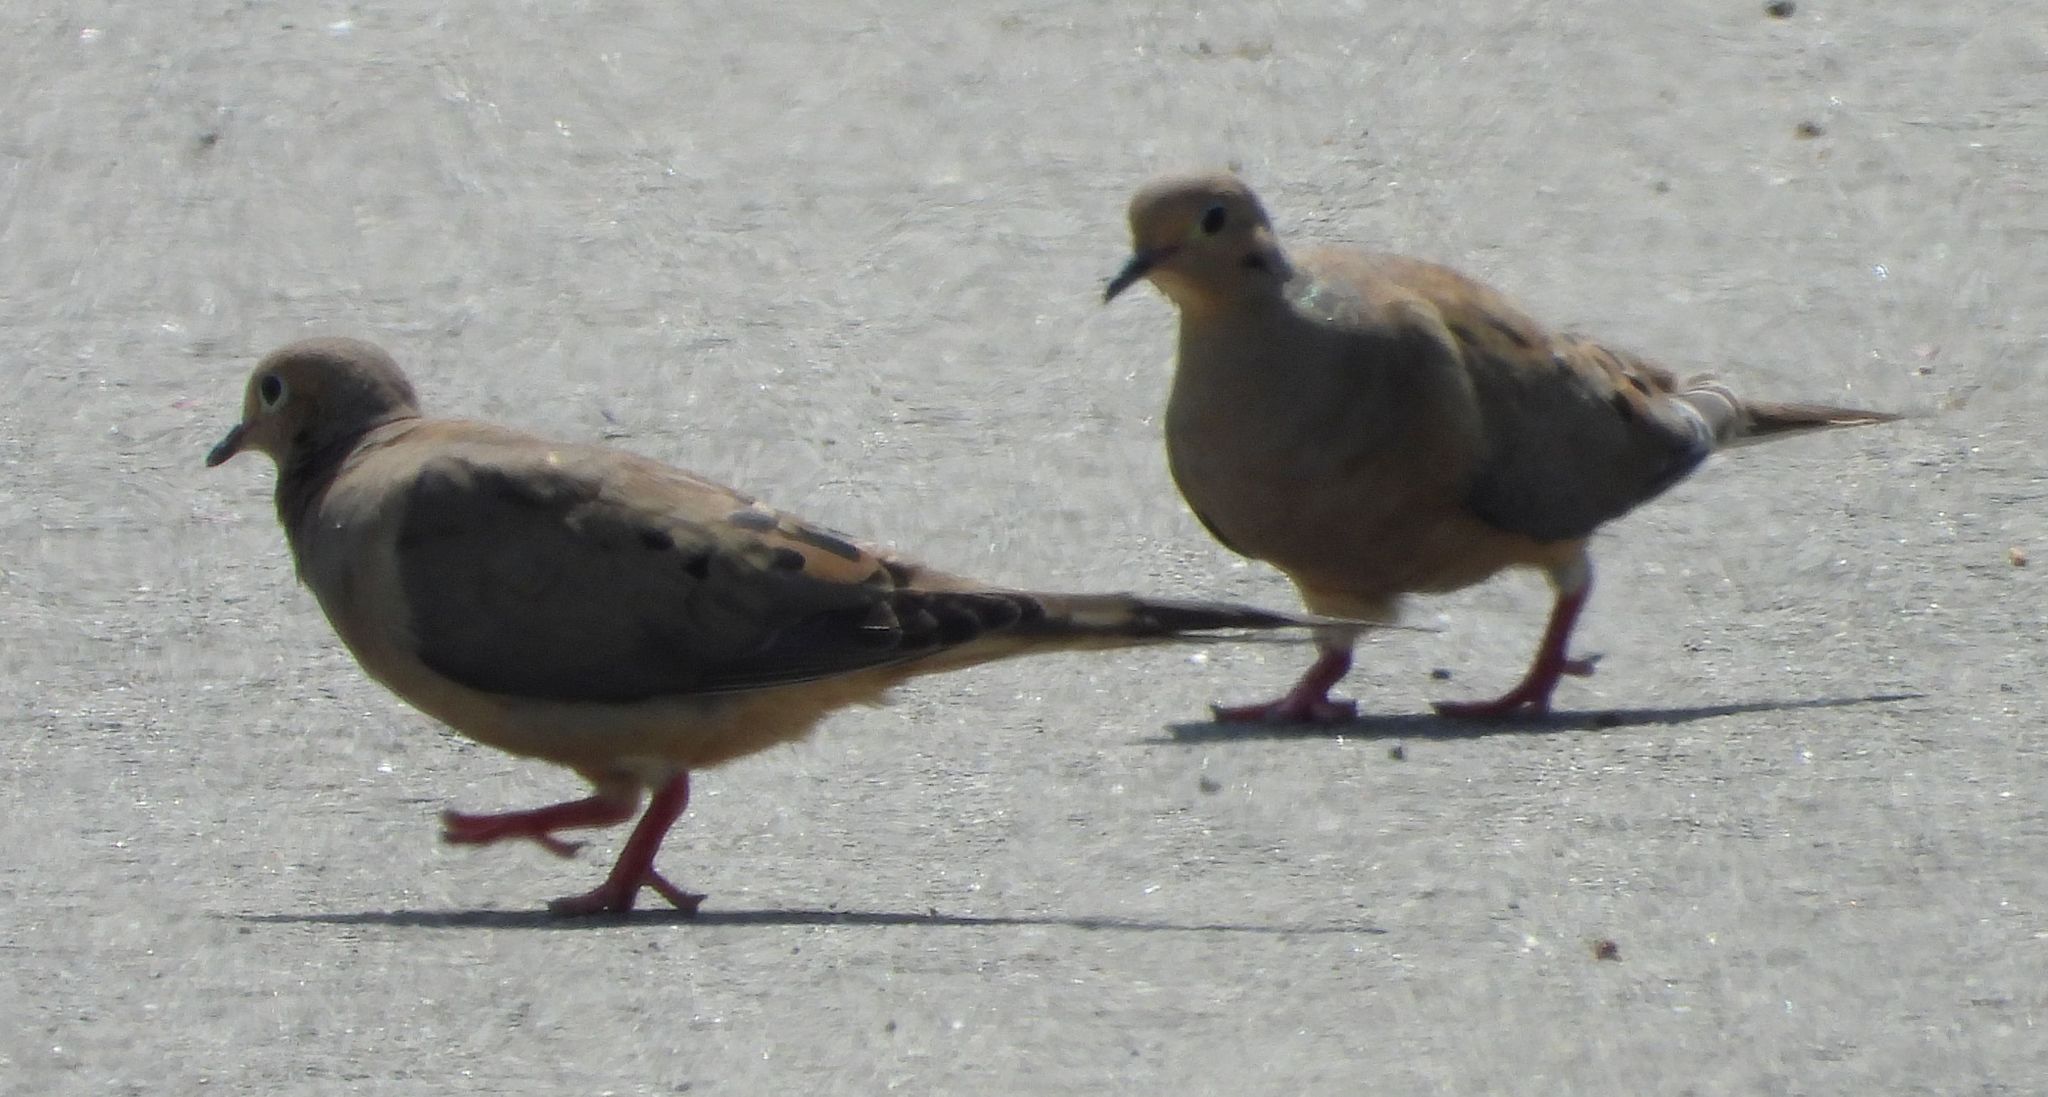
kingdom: Animalia
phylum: Chordata
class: Aves
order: Columbiformes
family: Columbidae
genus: Zenaida
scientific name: Zenaida macroura
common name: Mourning dove
